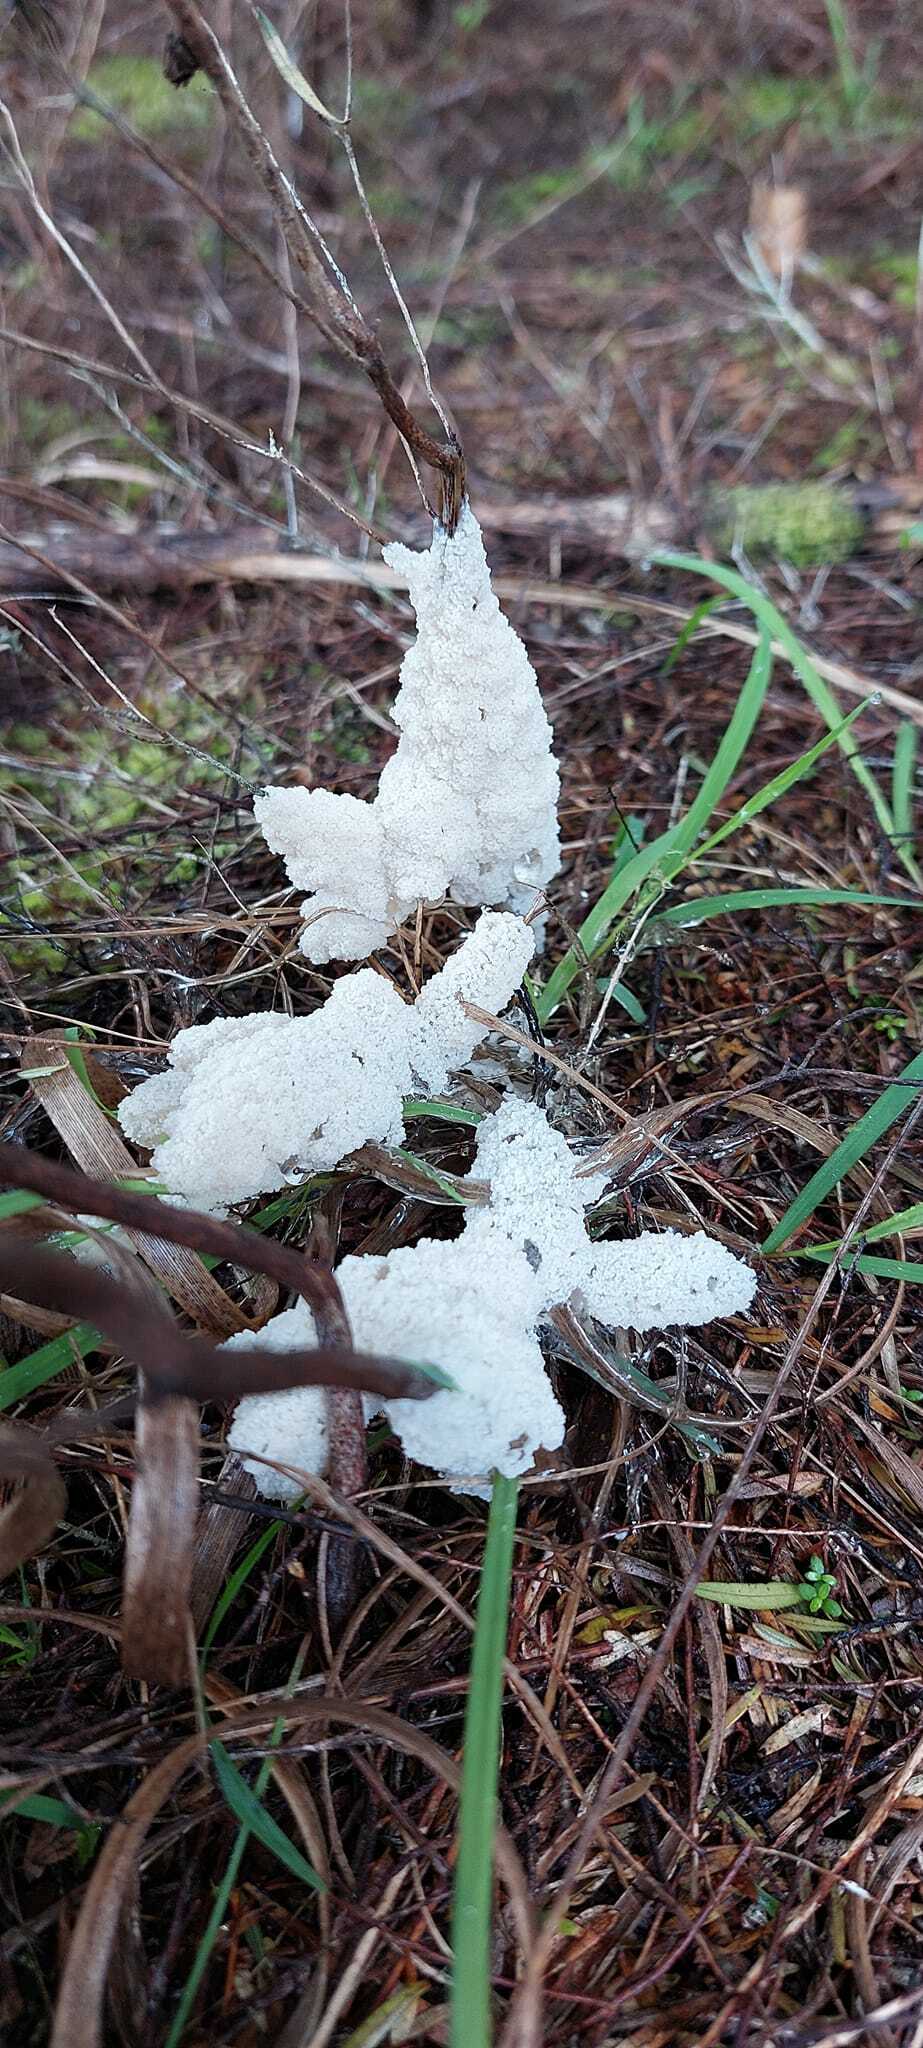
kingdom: Protozoa
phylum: Mycetozoa
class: Myxomycetes
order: Physarales
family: Physaraceae
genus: Didymium
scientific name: Didymium
